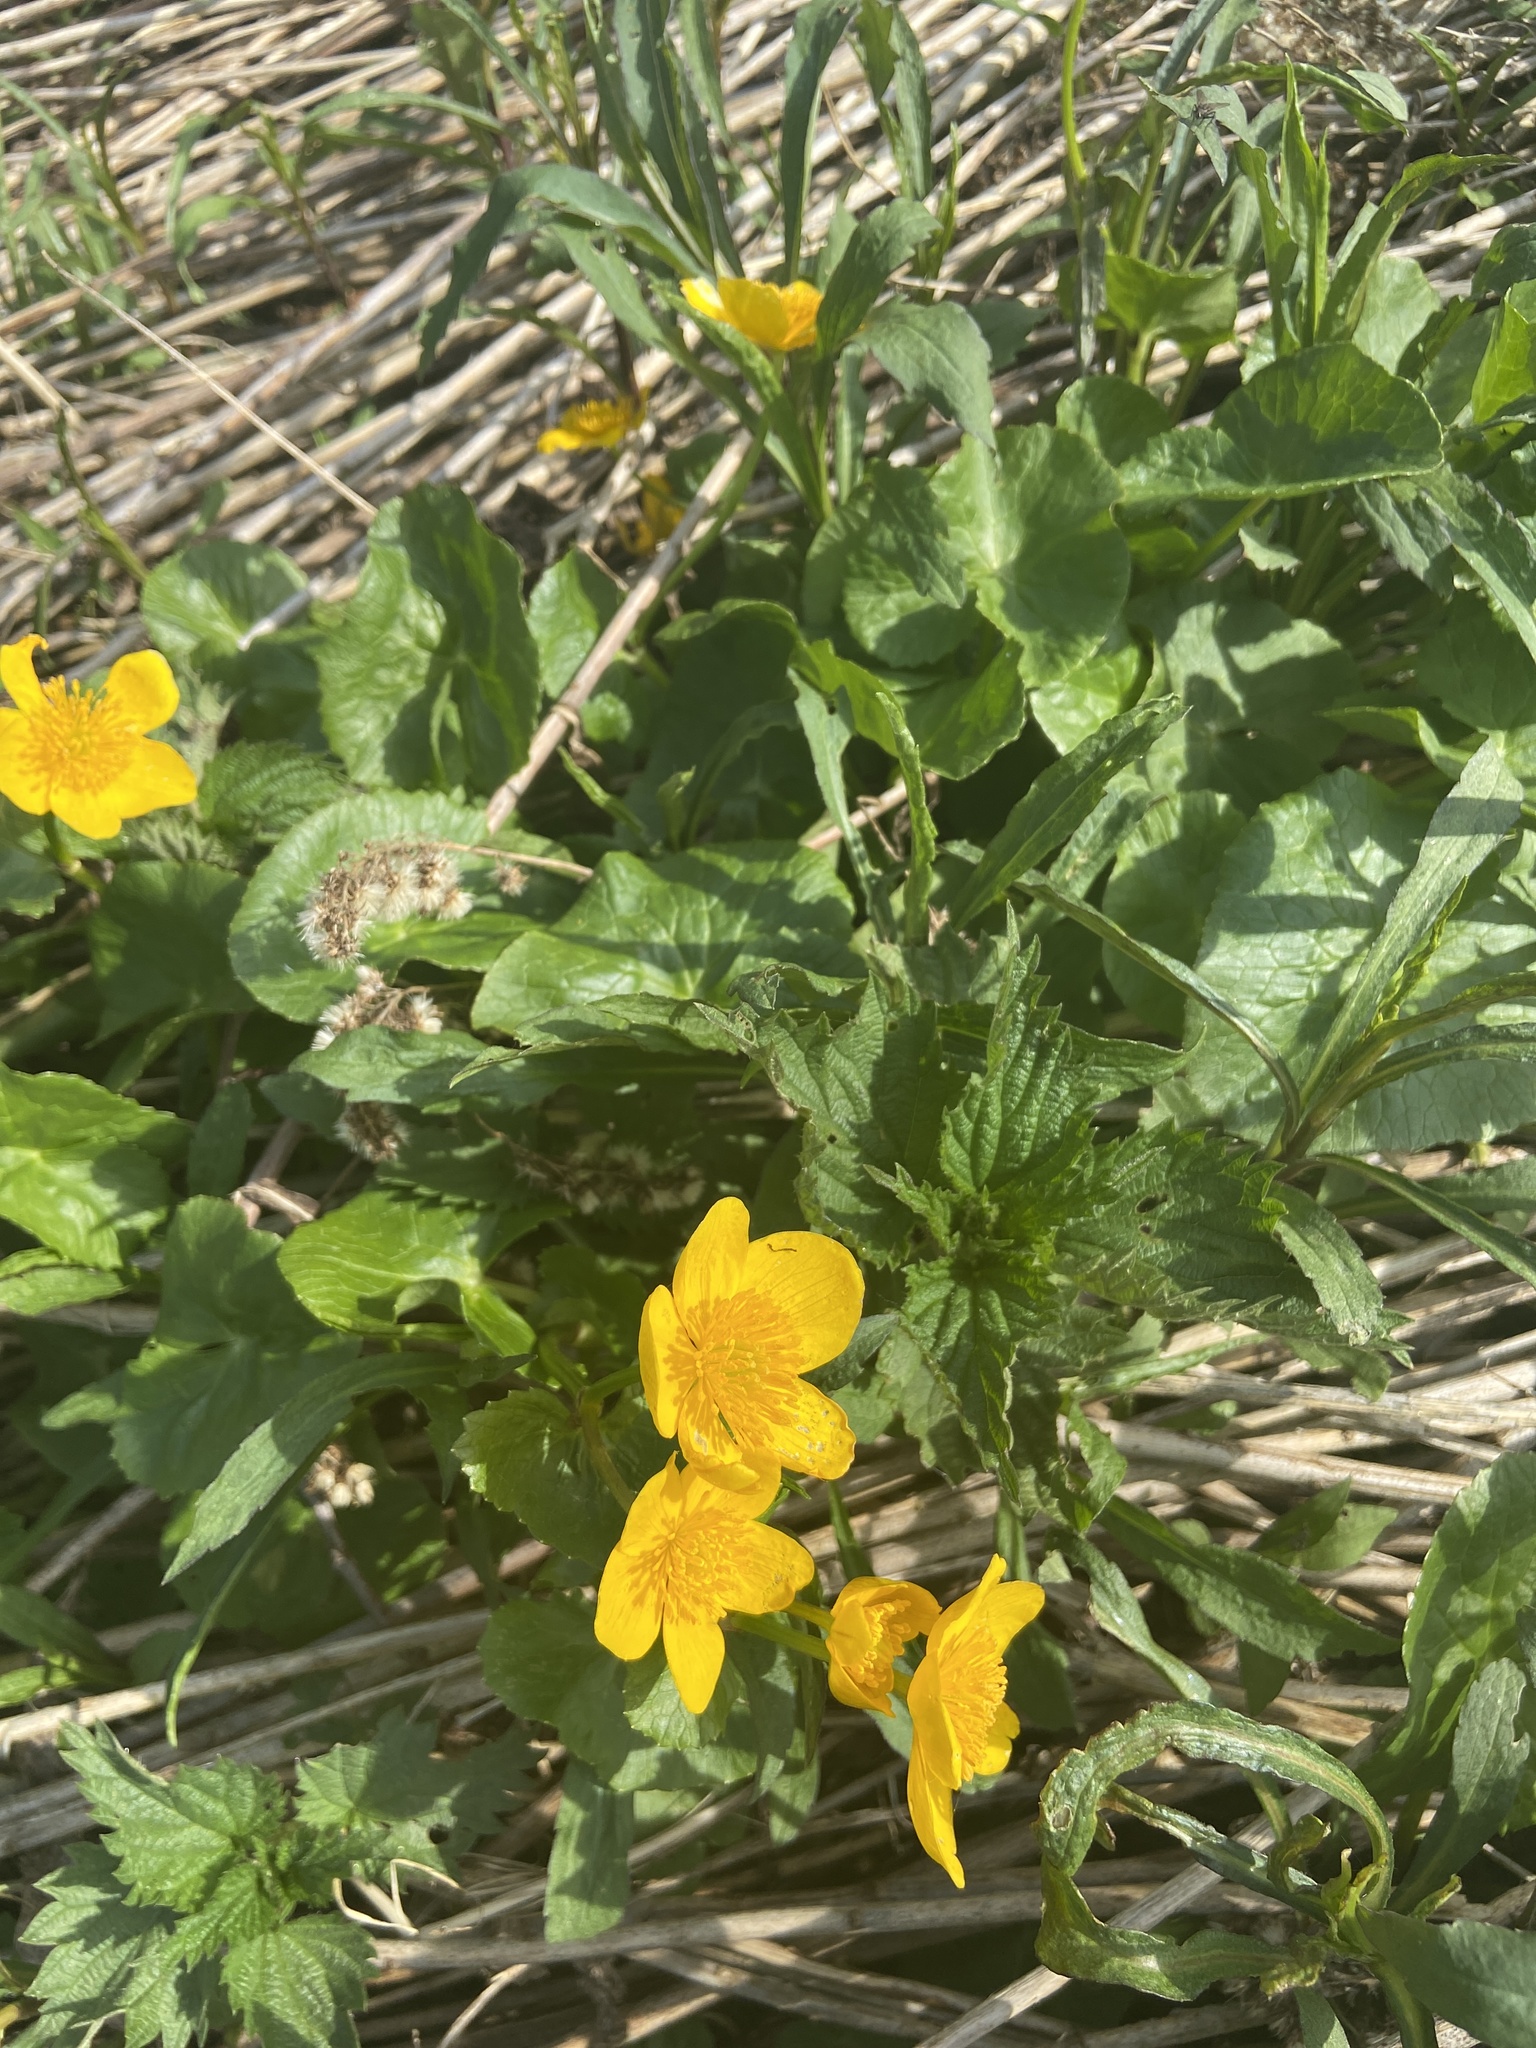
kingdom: Plantae
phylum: Tracheophyta
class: Magnoliopsida
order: Ranunculales
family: Ranunculaceae
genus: Caltha
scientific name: Caltha palustris
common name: Marsh marigold
